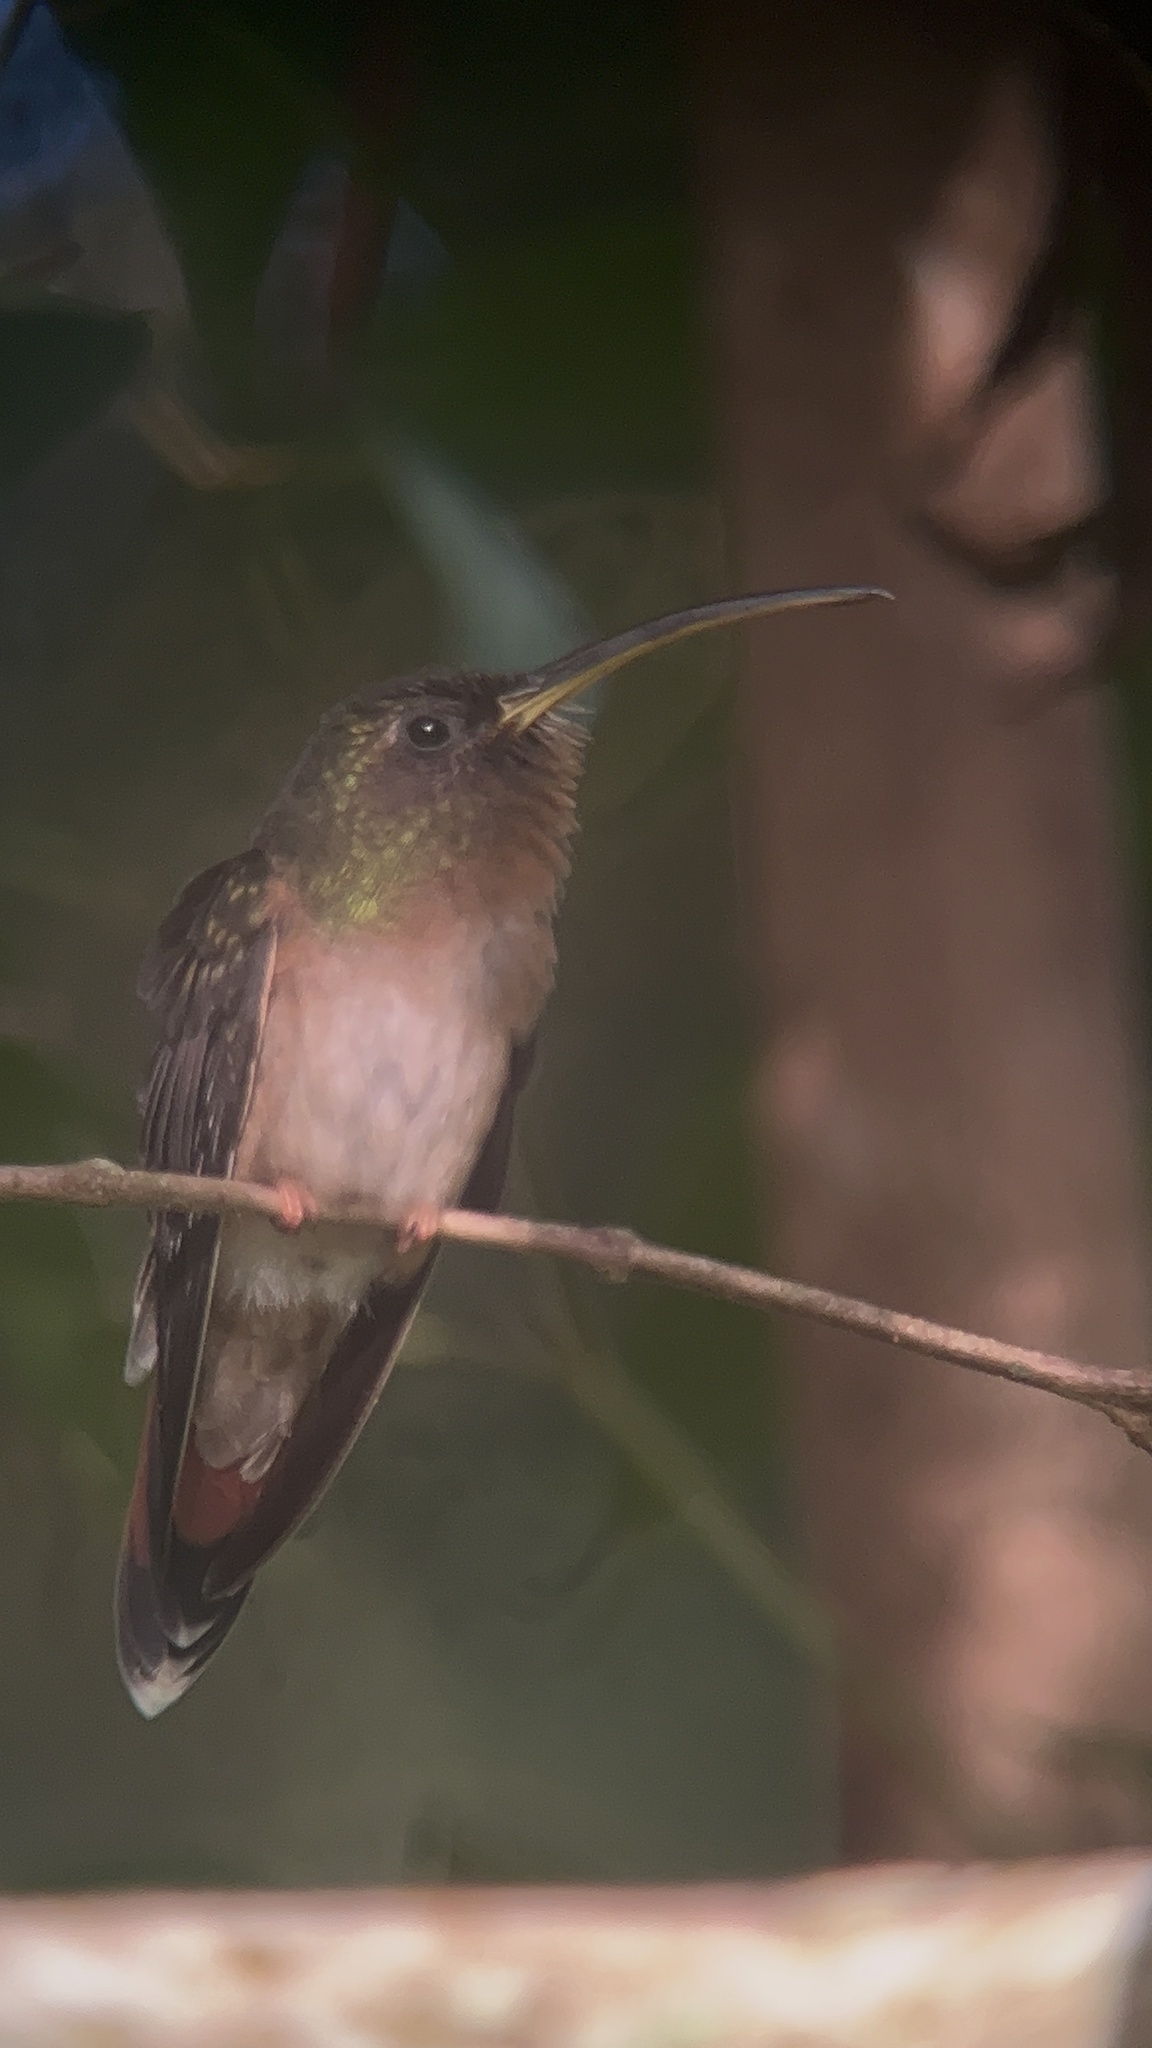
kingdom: Animalia
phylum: Chordata
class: Aves
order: Apodiformes
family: Trochilidae
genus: Glaucis
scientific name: Glaucis aeneus
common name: Bronzy hermit
